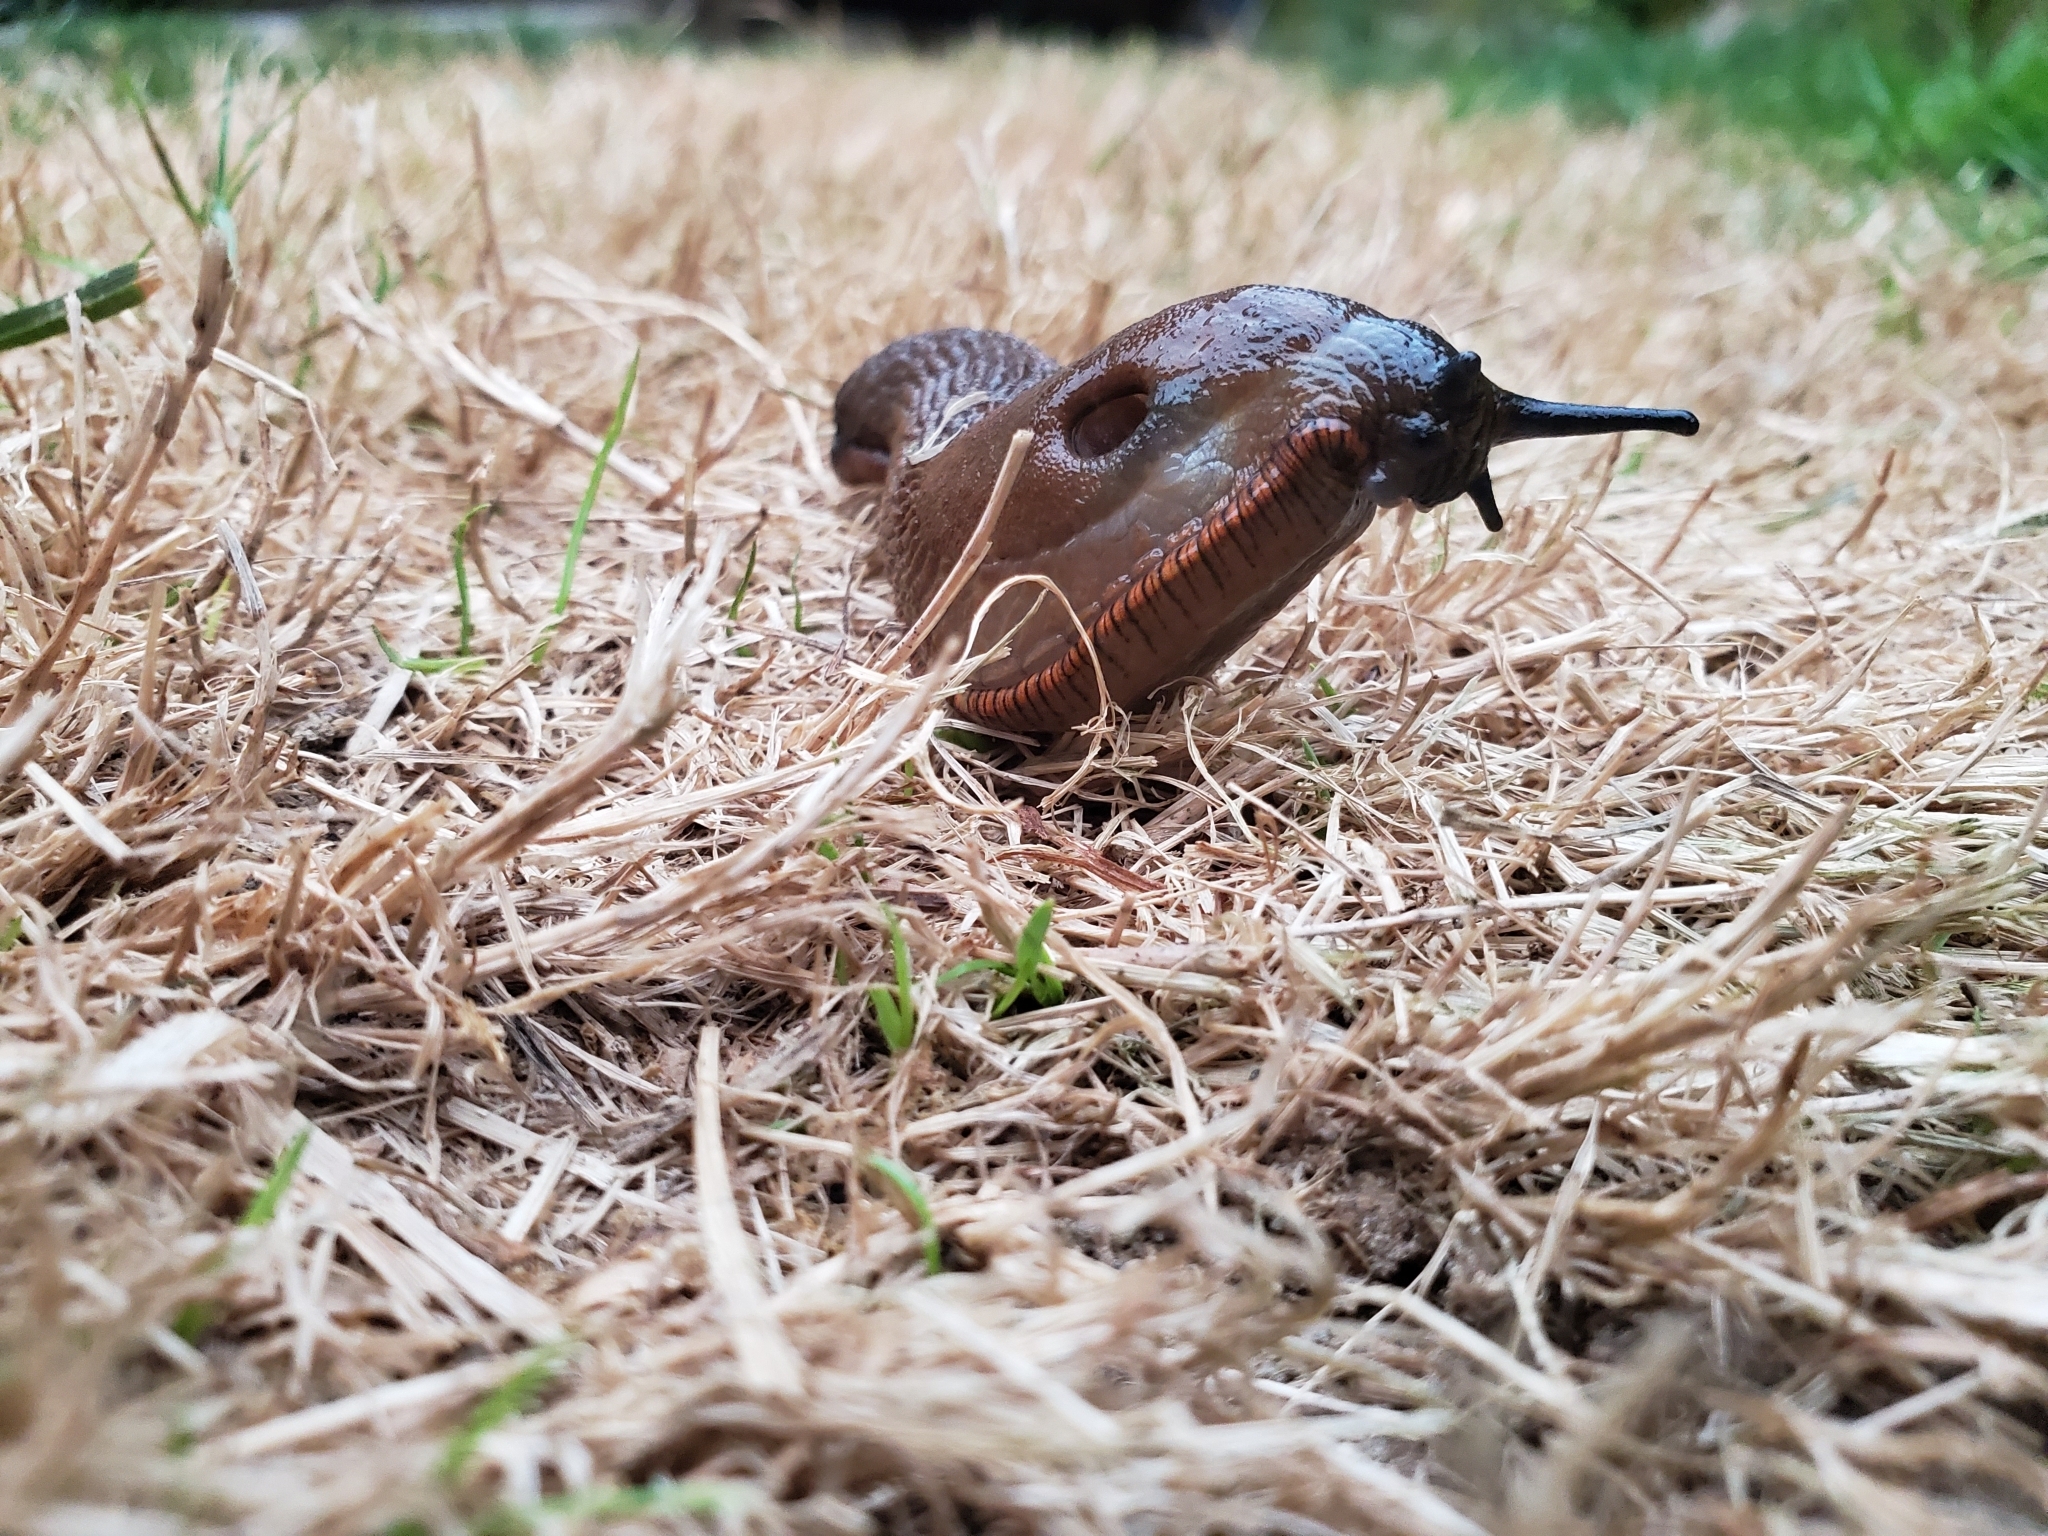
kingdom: Animalia
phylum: Mollusca
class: Gastropoda
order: Stylommatophora
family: Arionidae
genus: Arion
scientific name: Arion
